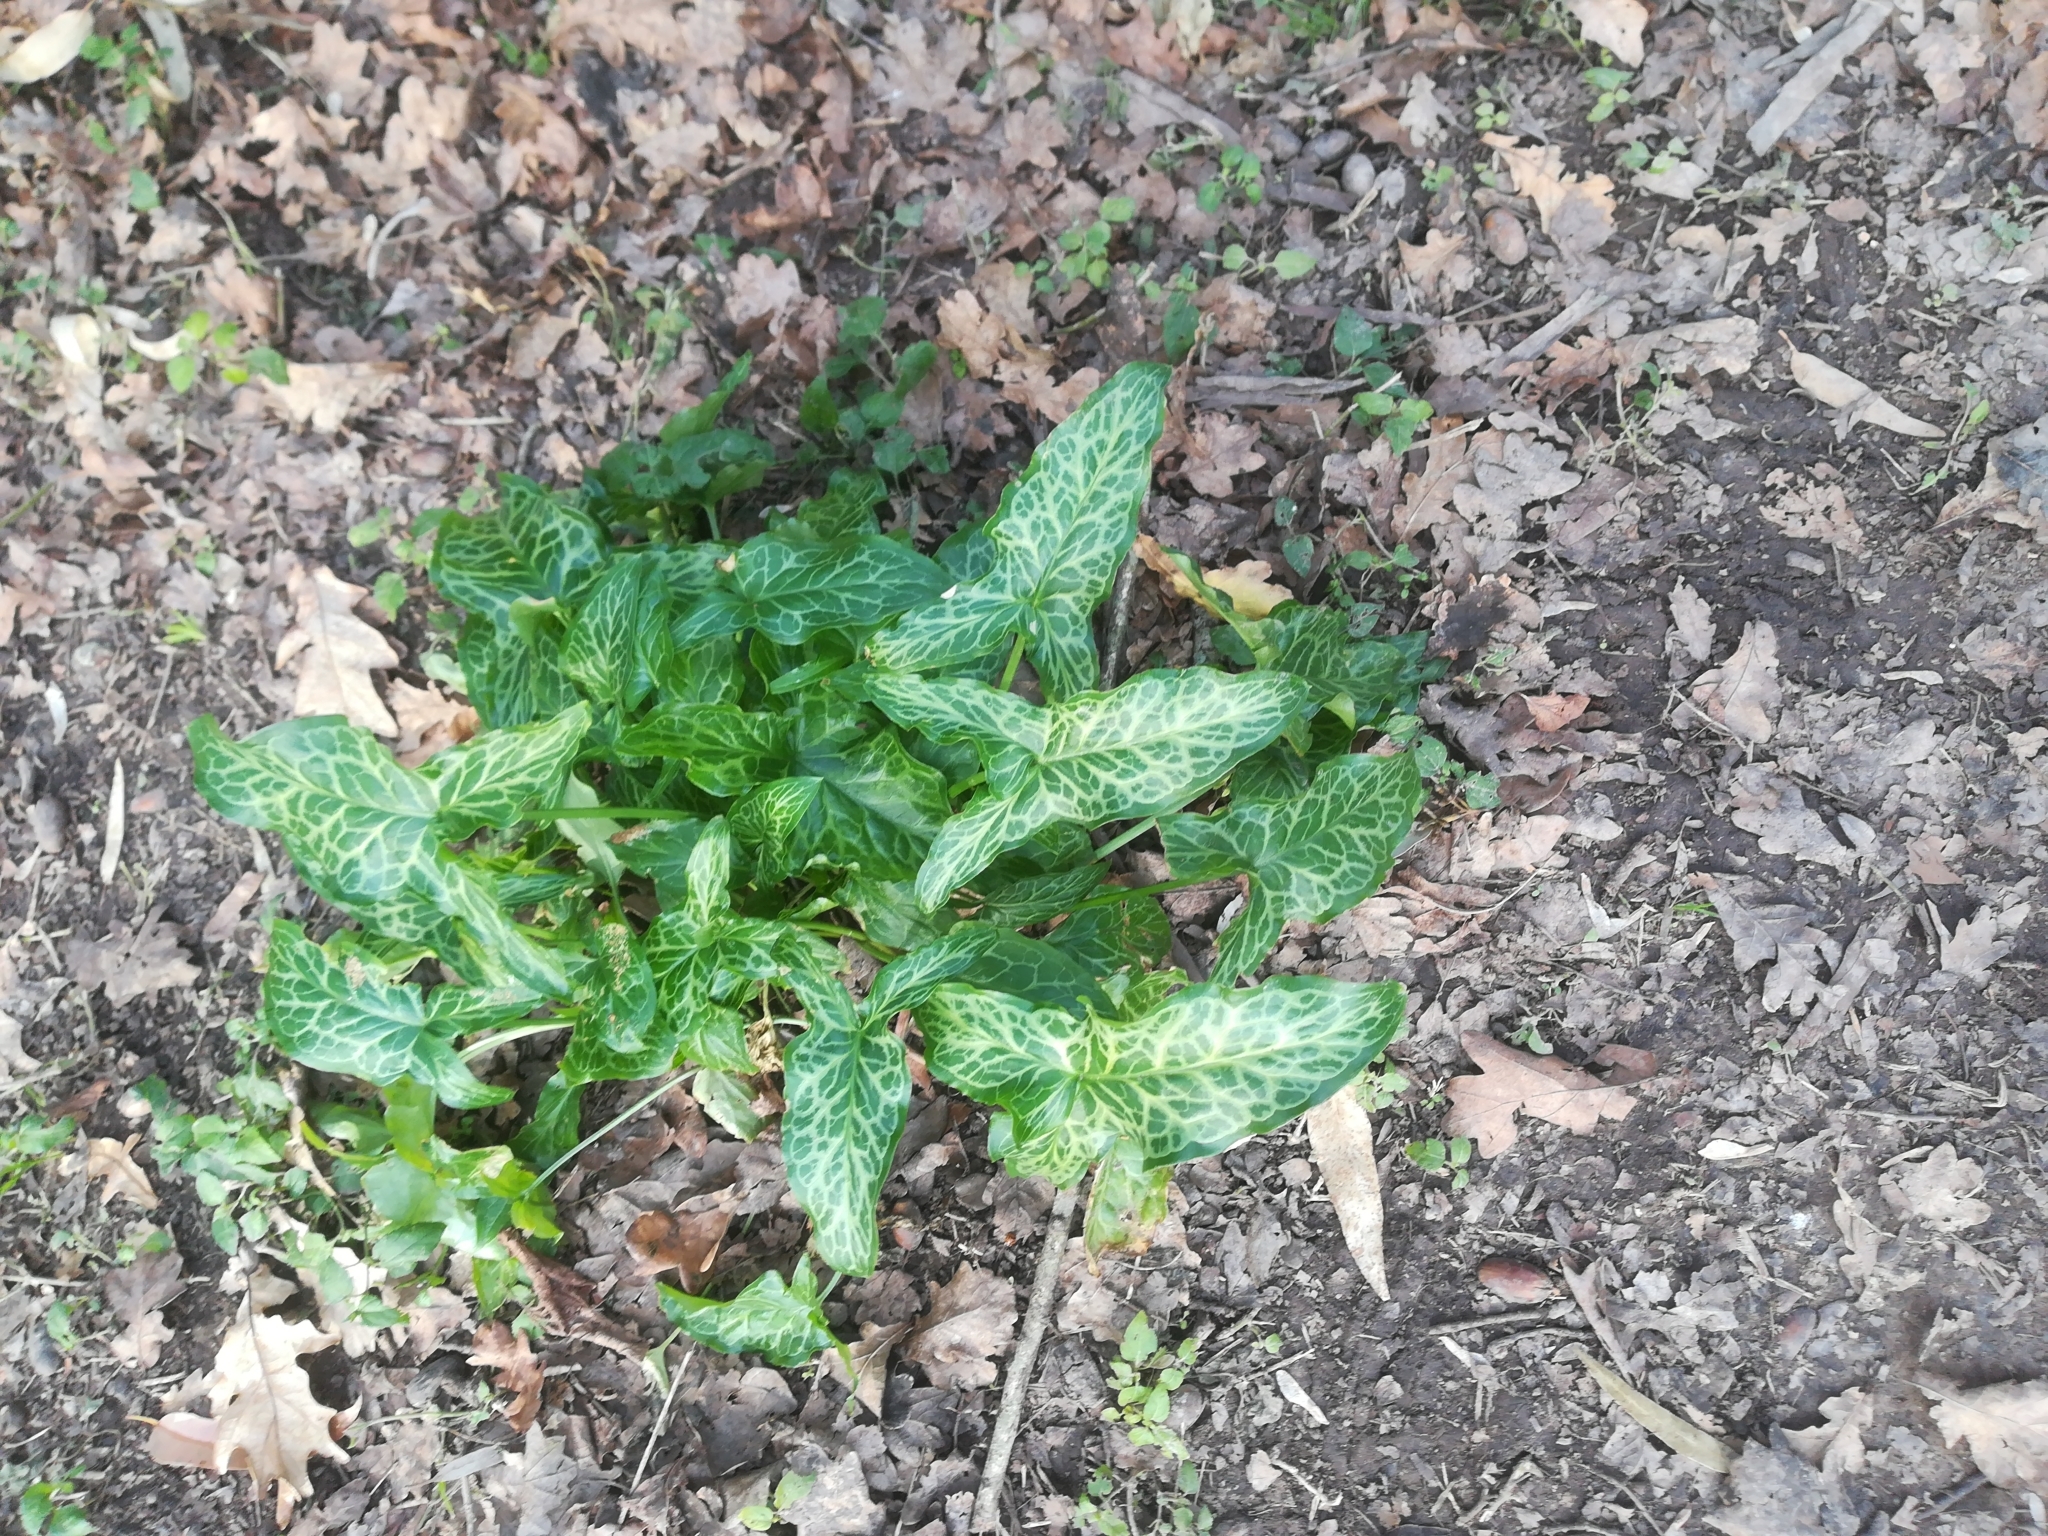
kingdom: Plantae
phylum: Tracheophyta
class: Liliopsida
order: Alismatales
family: Araceae
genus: Arum
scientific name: Arum italicum
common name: Italian lords-and-ladies
